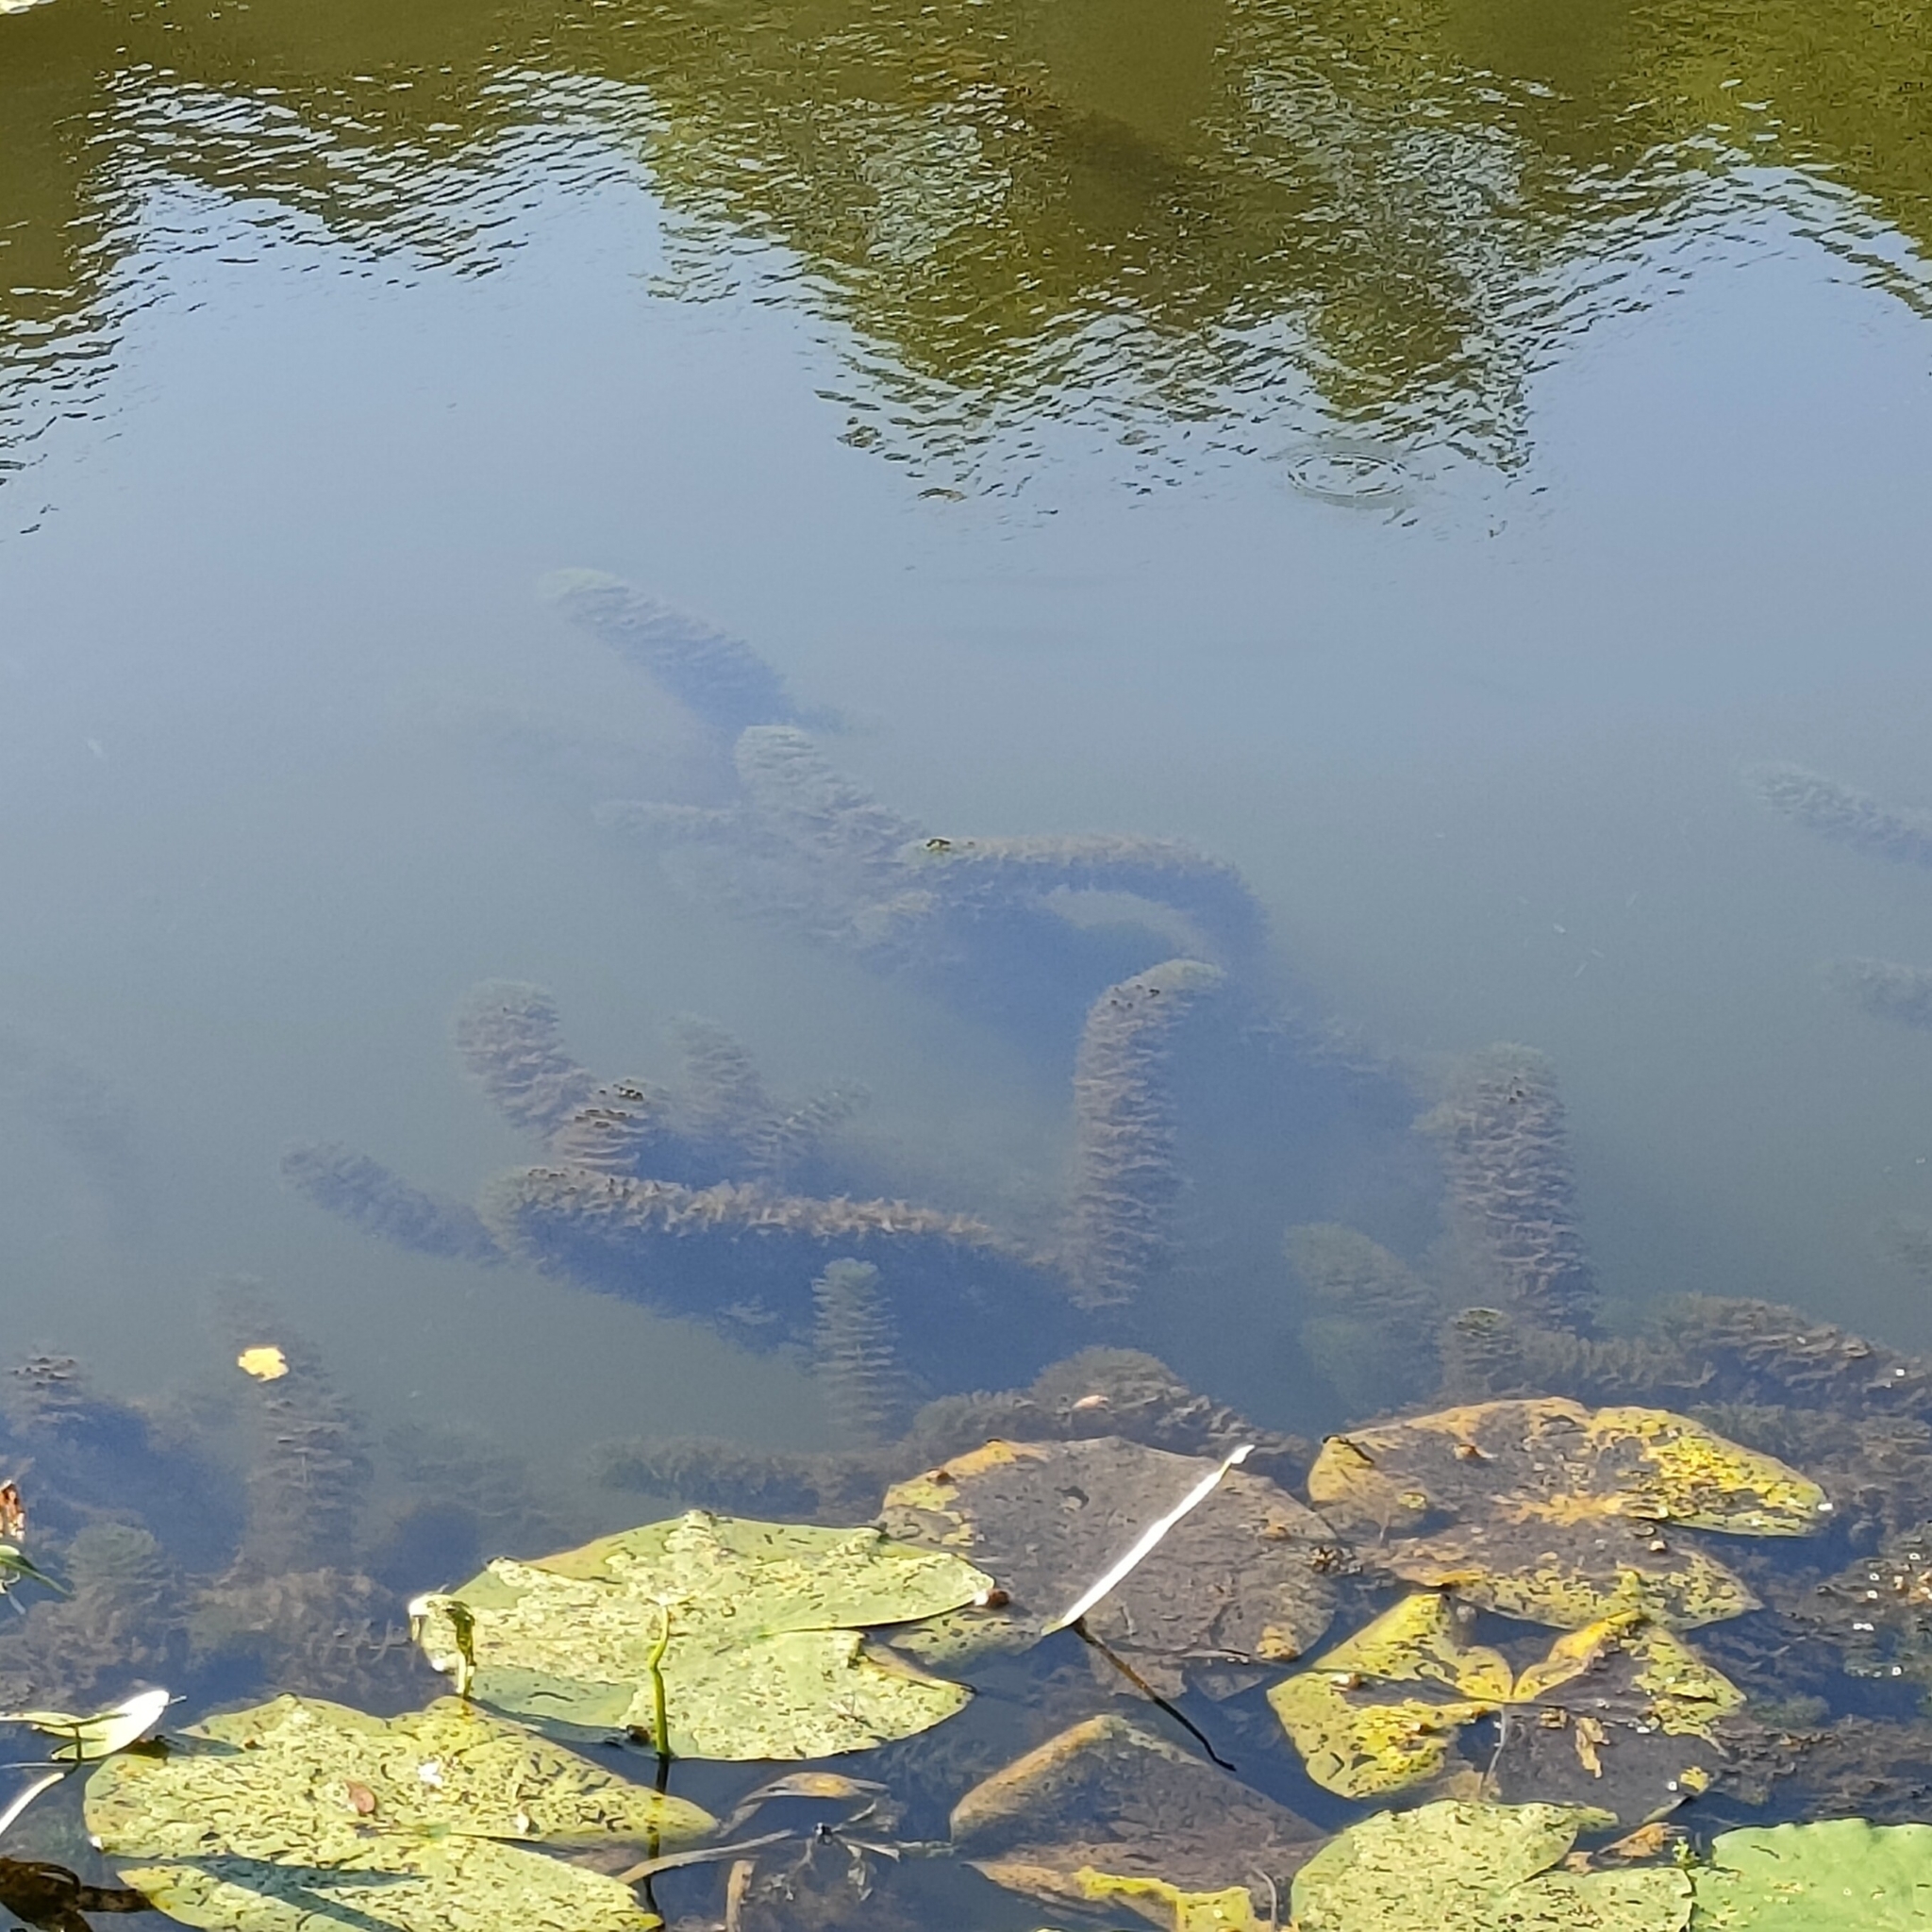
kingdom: Plantae
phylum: Tracheophyta
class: Magnoliopsida
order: Ceratophyllales
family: Ceratophyllaceae
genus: Ceratophyllum
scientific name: Ceratophyllum demersum
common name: Rigid hornwort
